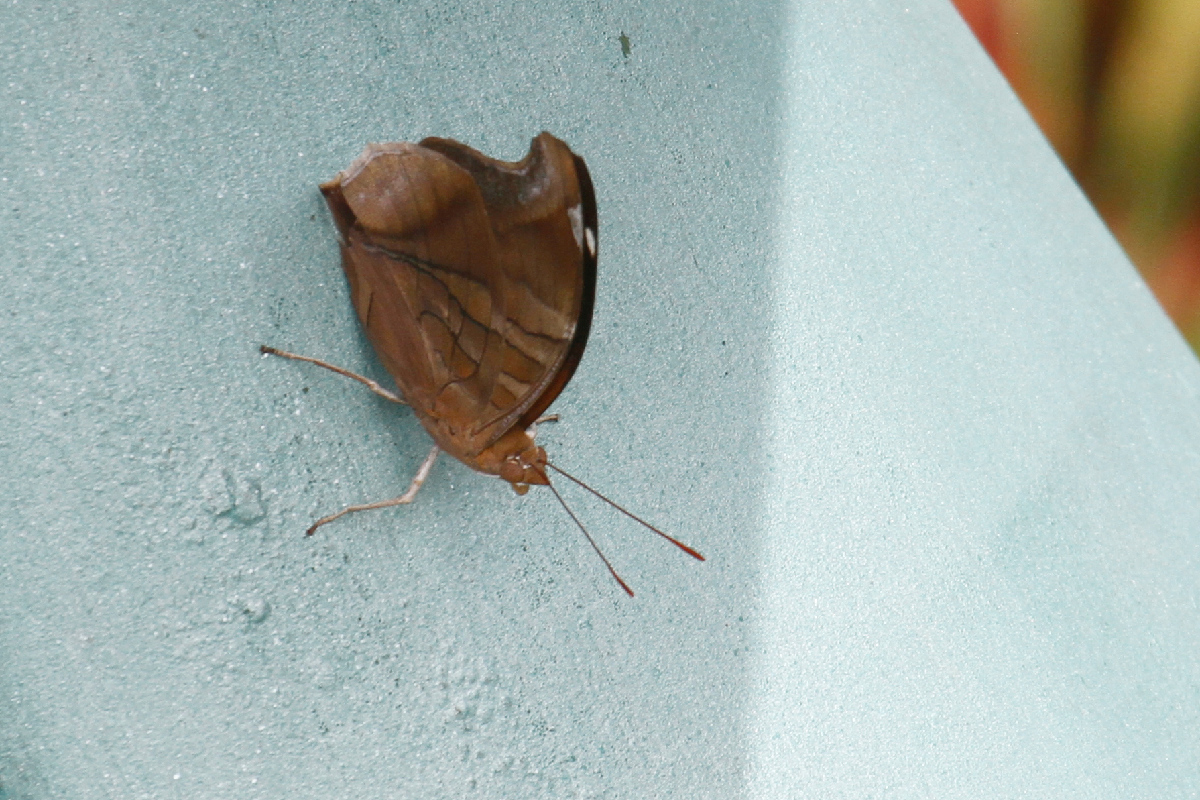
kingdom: Animalia
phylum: Arthropoda
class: Insecta
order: Lepidoptera
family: Nymphalidae
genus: Historis
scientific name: Historis odius
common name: Orion cecropian
